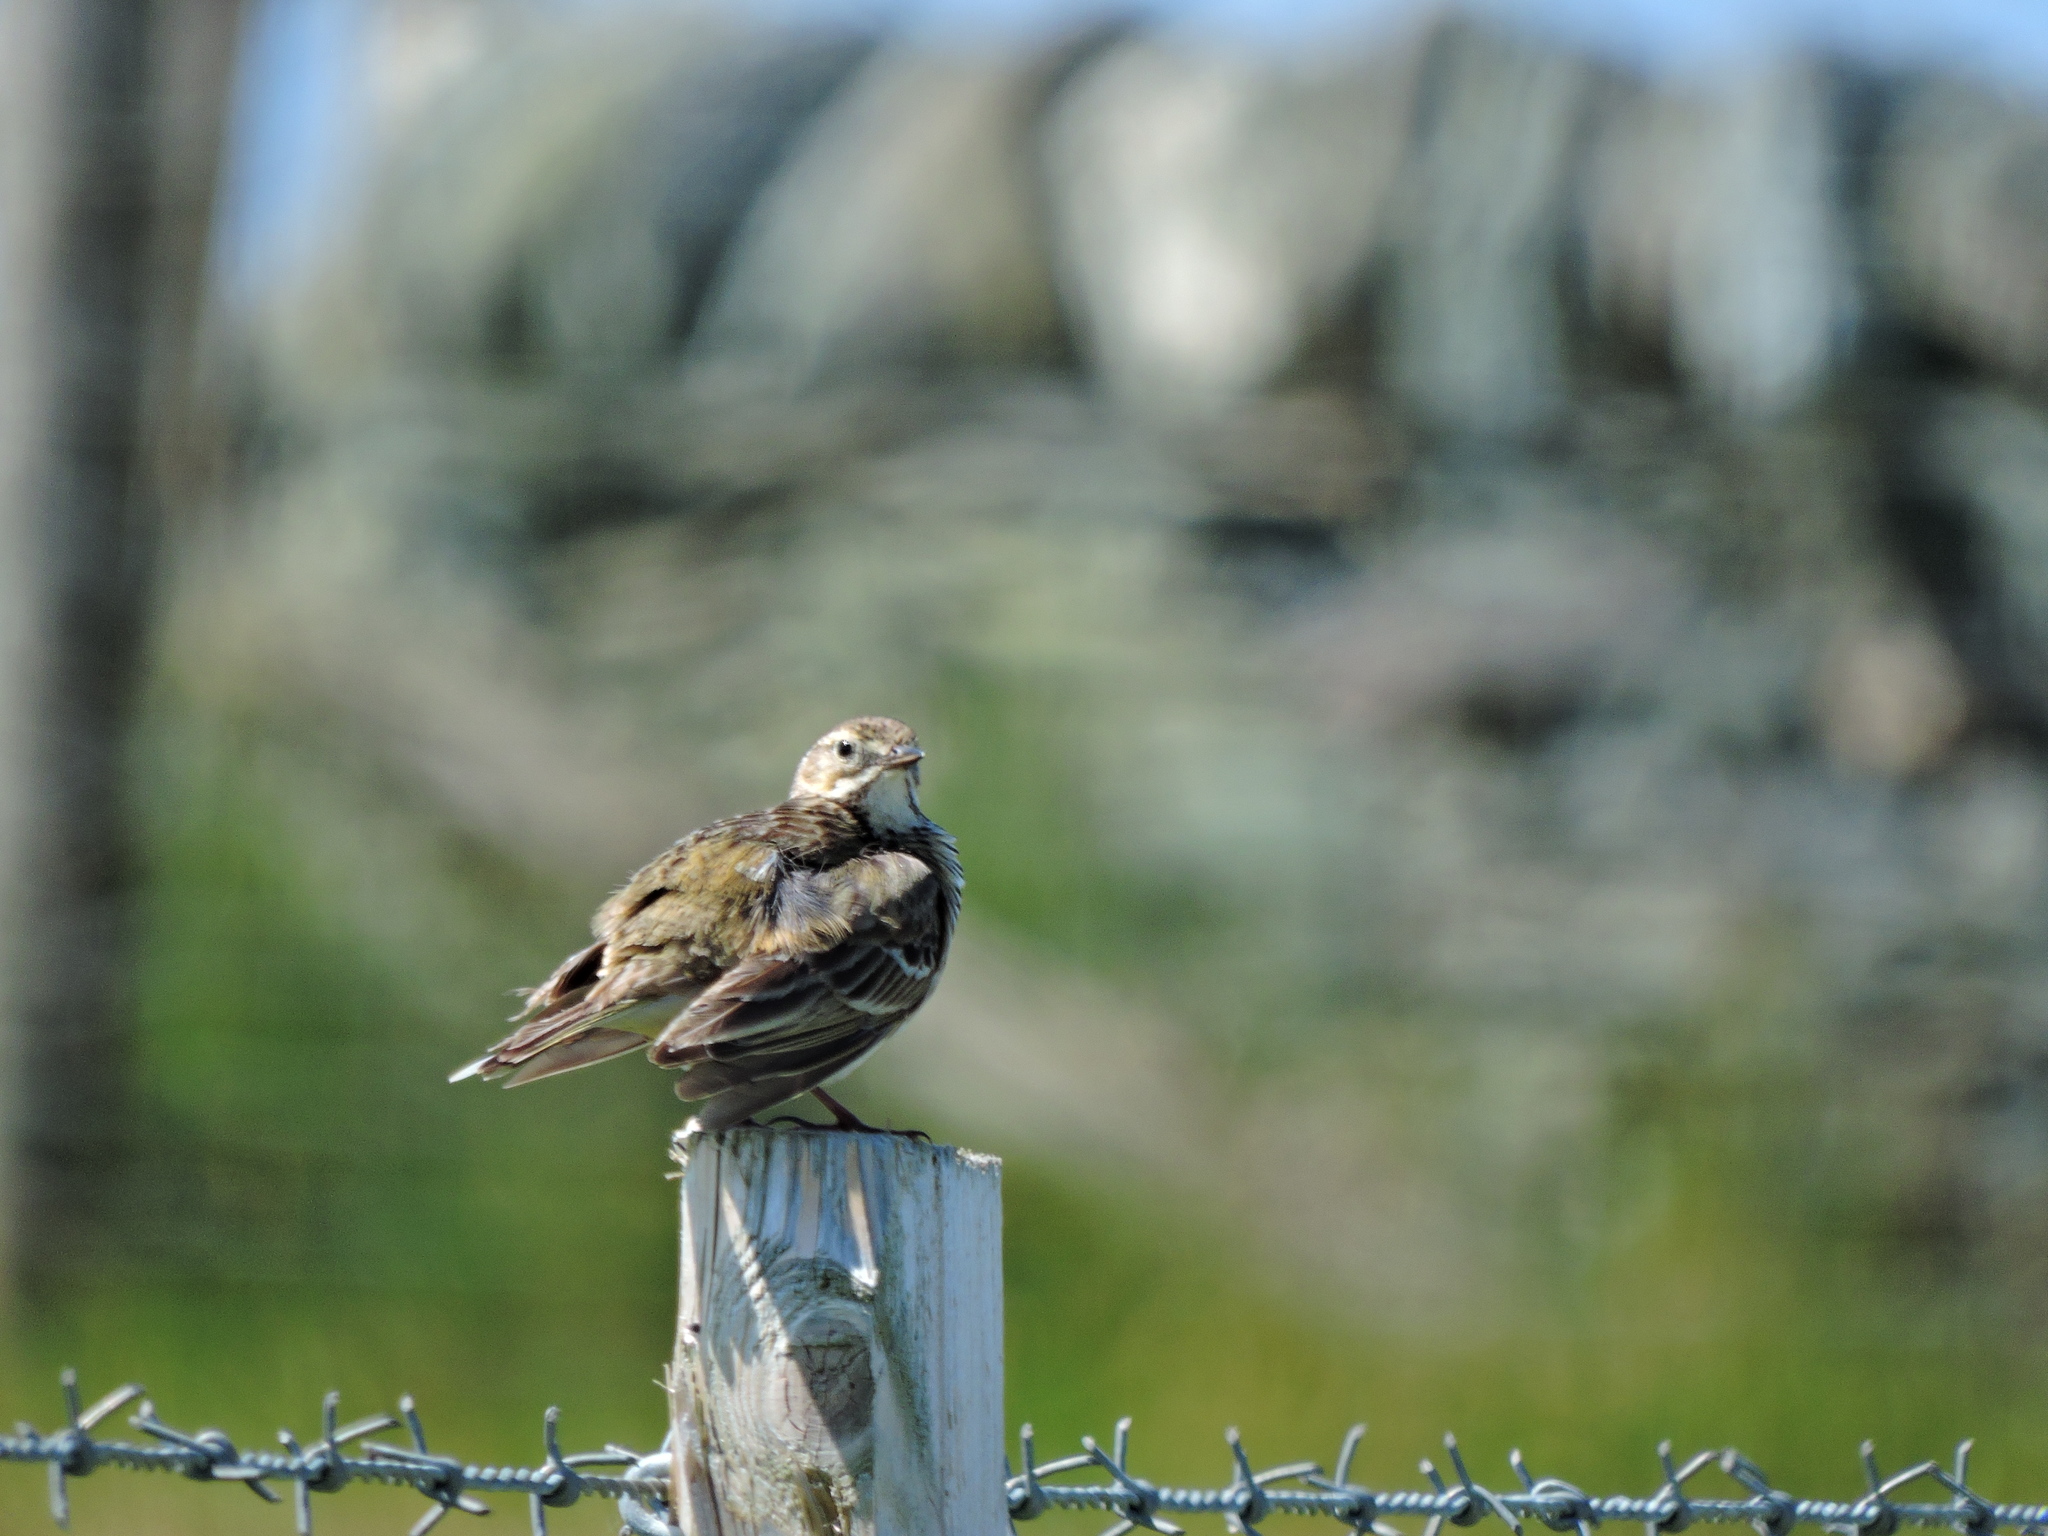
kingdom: Animalia
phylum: Chordata
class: Aves
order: Passeriformes
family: Motacillidae
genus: Anthus
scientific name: Anthus pratensis
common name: Meadow pipit
